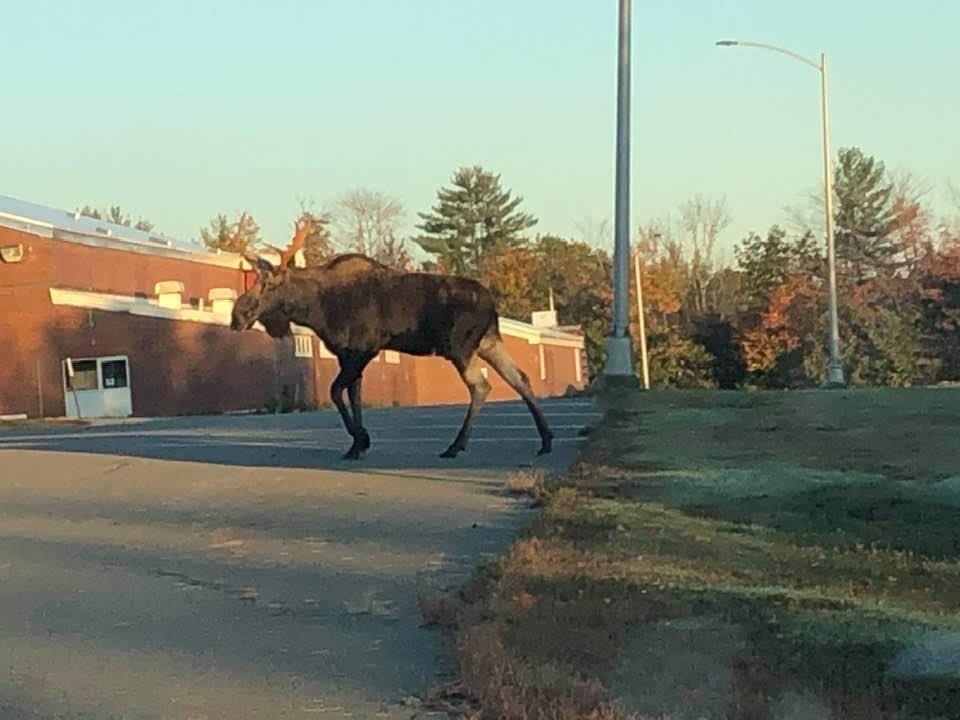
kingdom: Animalia
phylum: Chordata
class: Mammalia
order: Artiodactyla
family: Cervidae
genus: Alces
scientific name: Alces alces
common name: Moose
